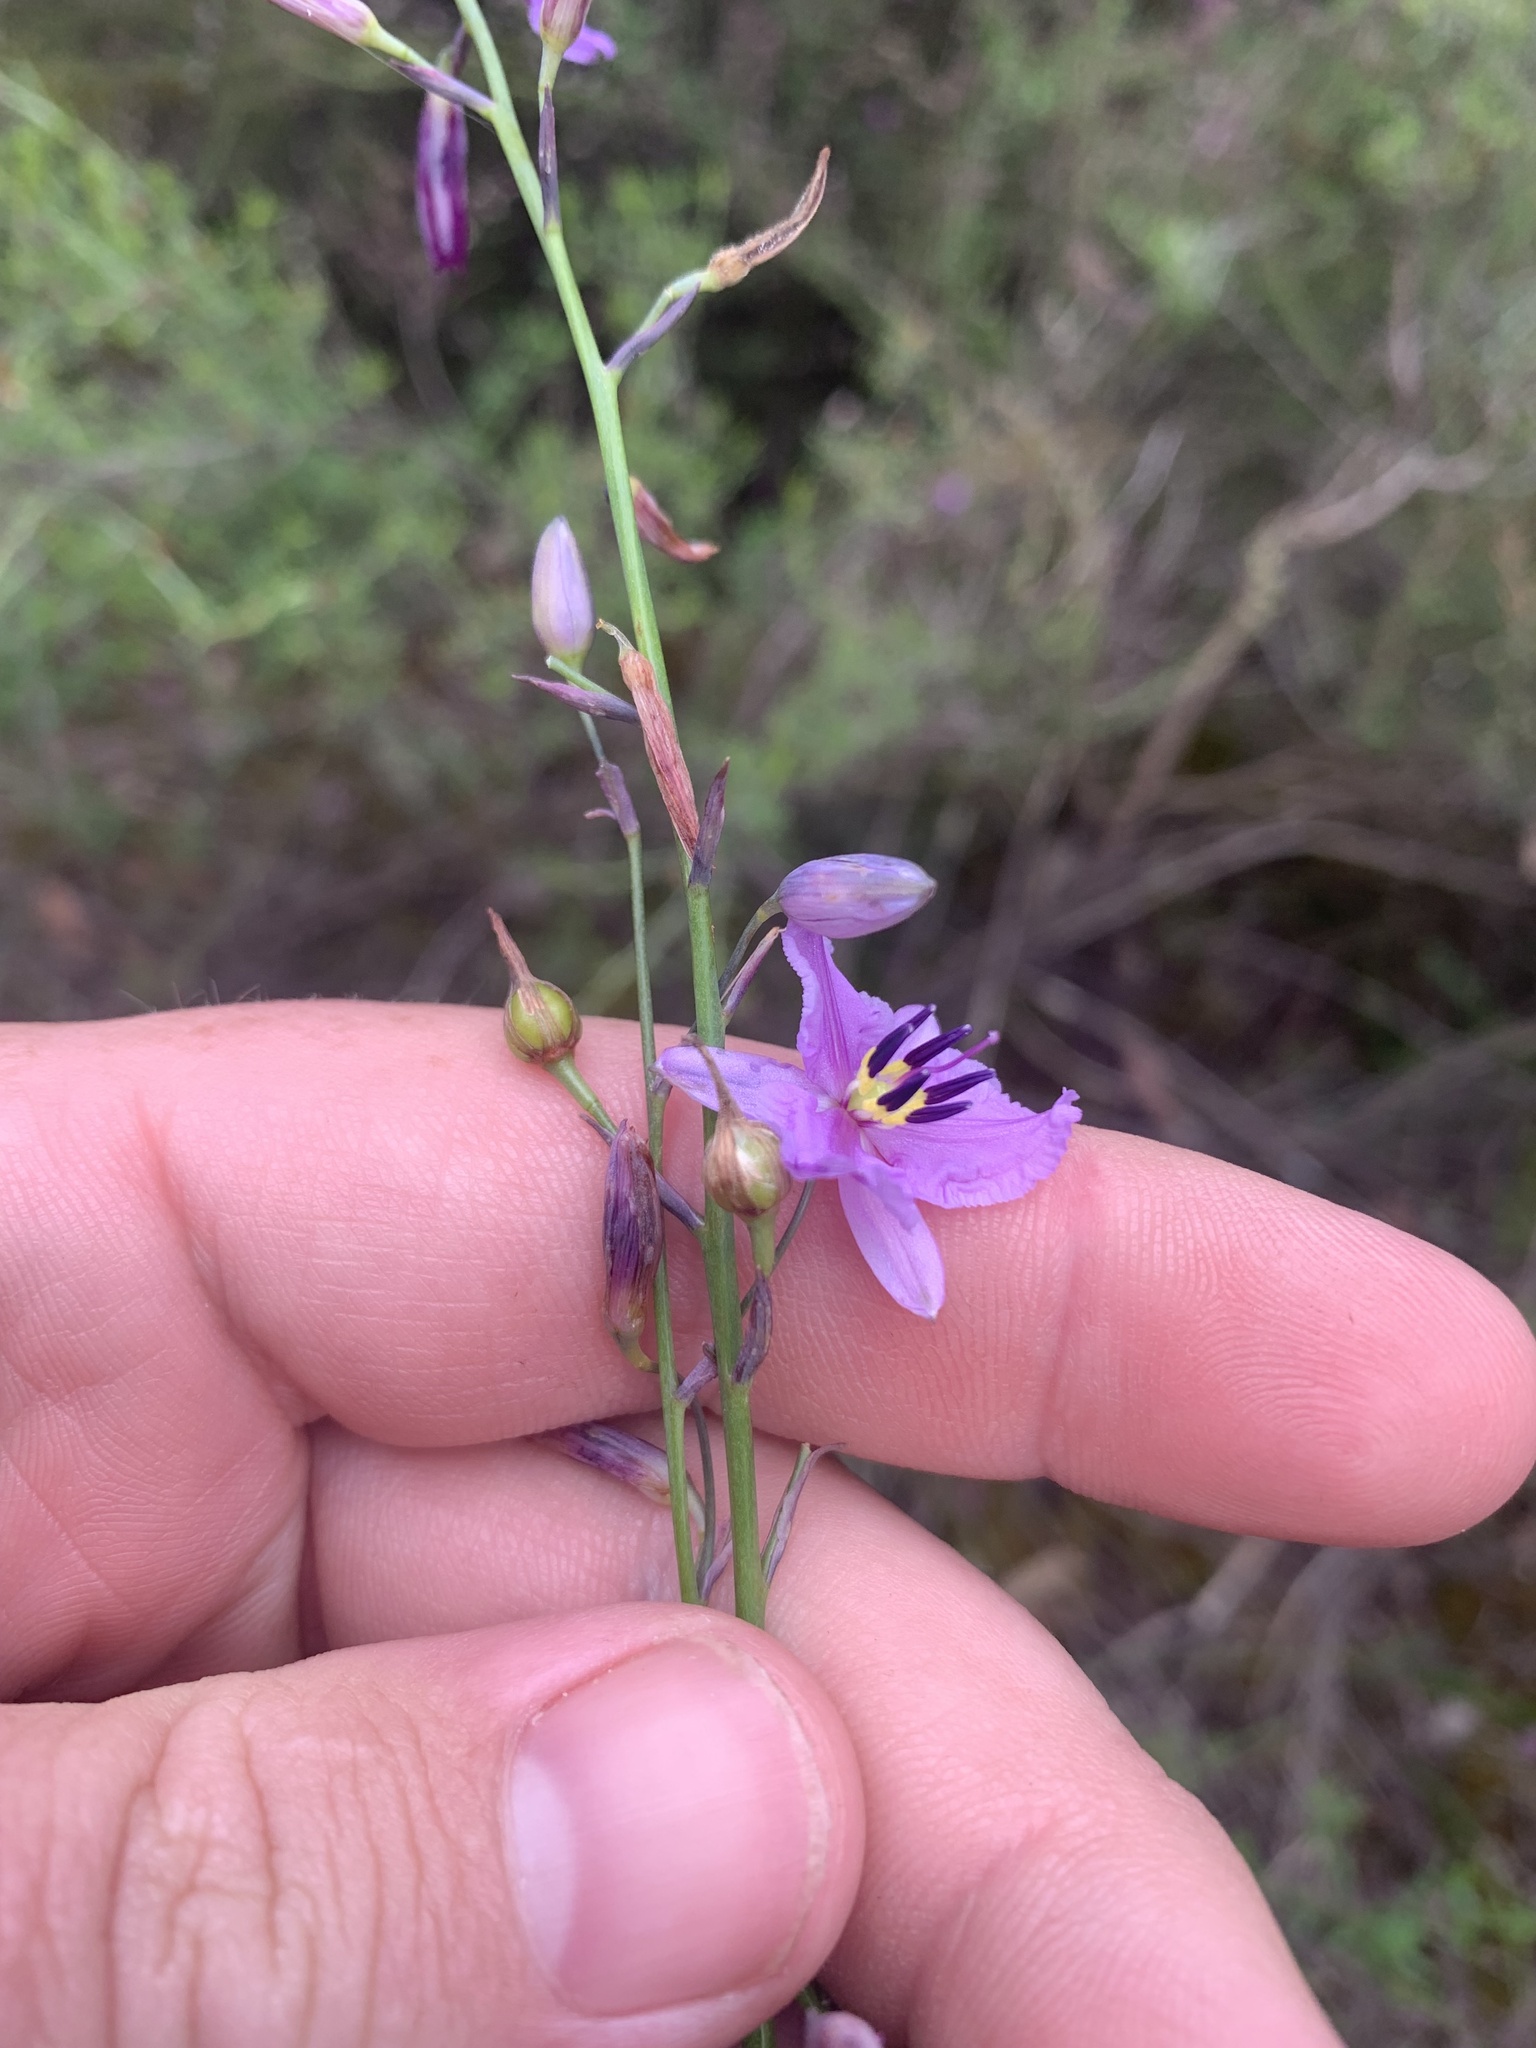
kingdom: Plantae
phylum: Tracheophyta
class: Liliopsida
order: Asparagales
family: Asparagaceae
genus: Arthropodium
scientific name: Arthropodium strictum
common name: Chocolate-lily
